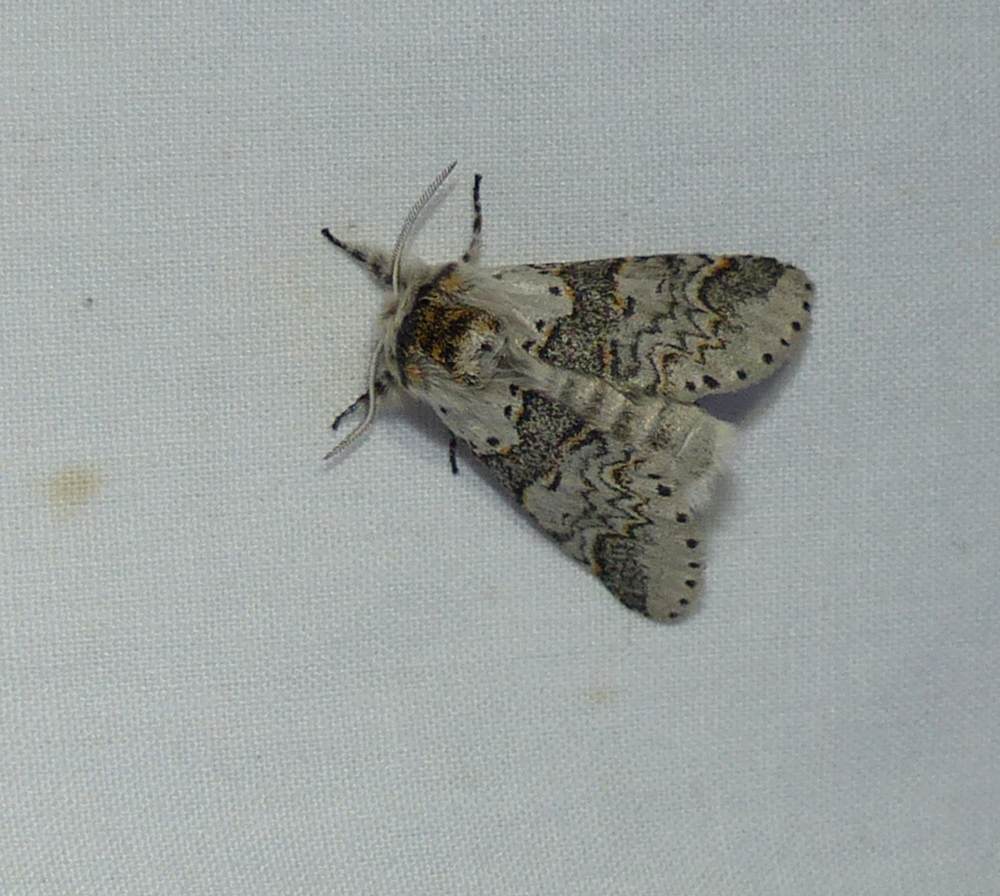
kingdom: Animalia
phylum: Arthropoda
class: Insecta
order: Lepidoptera
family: Notodontidae
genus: Furcula
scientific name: Furcula occidentalis
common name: Western furcula moth
